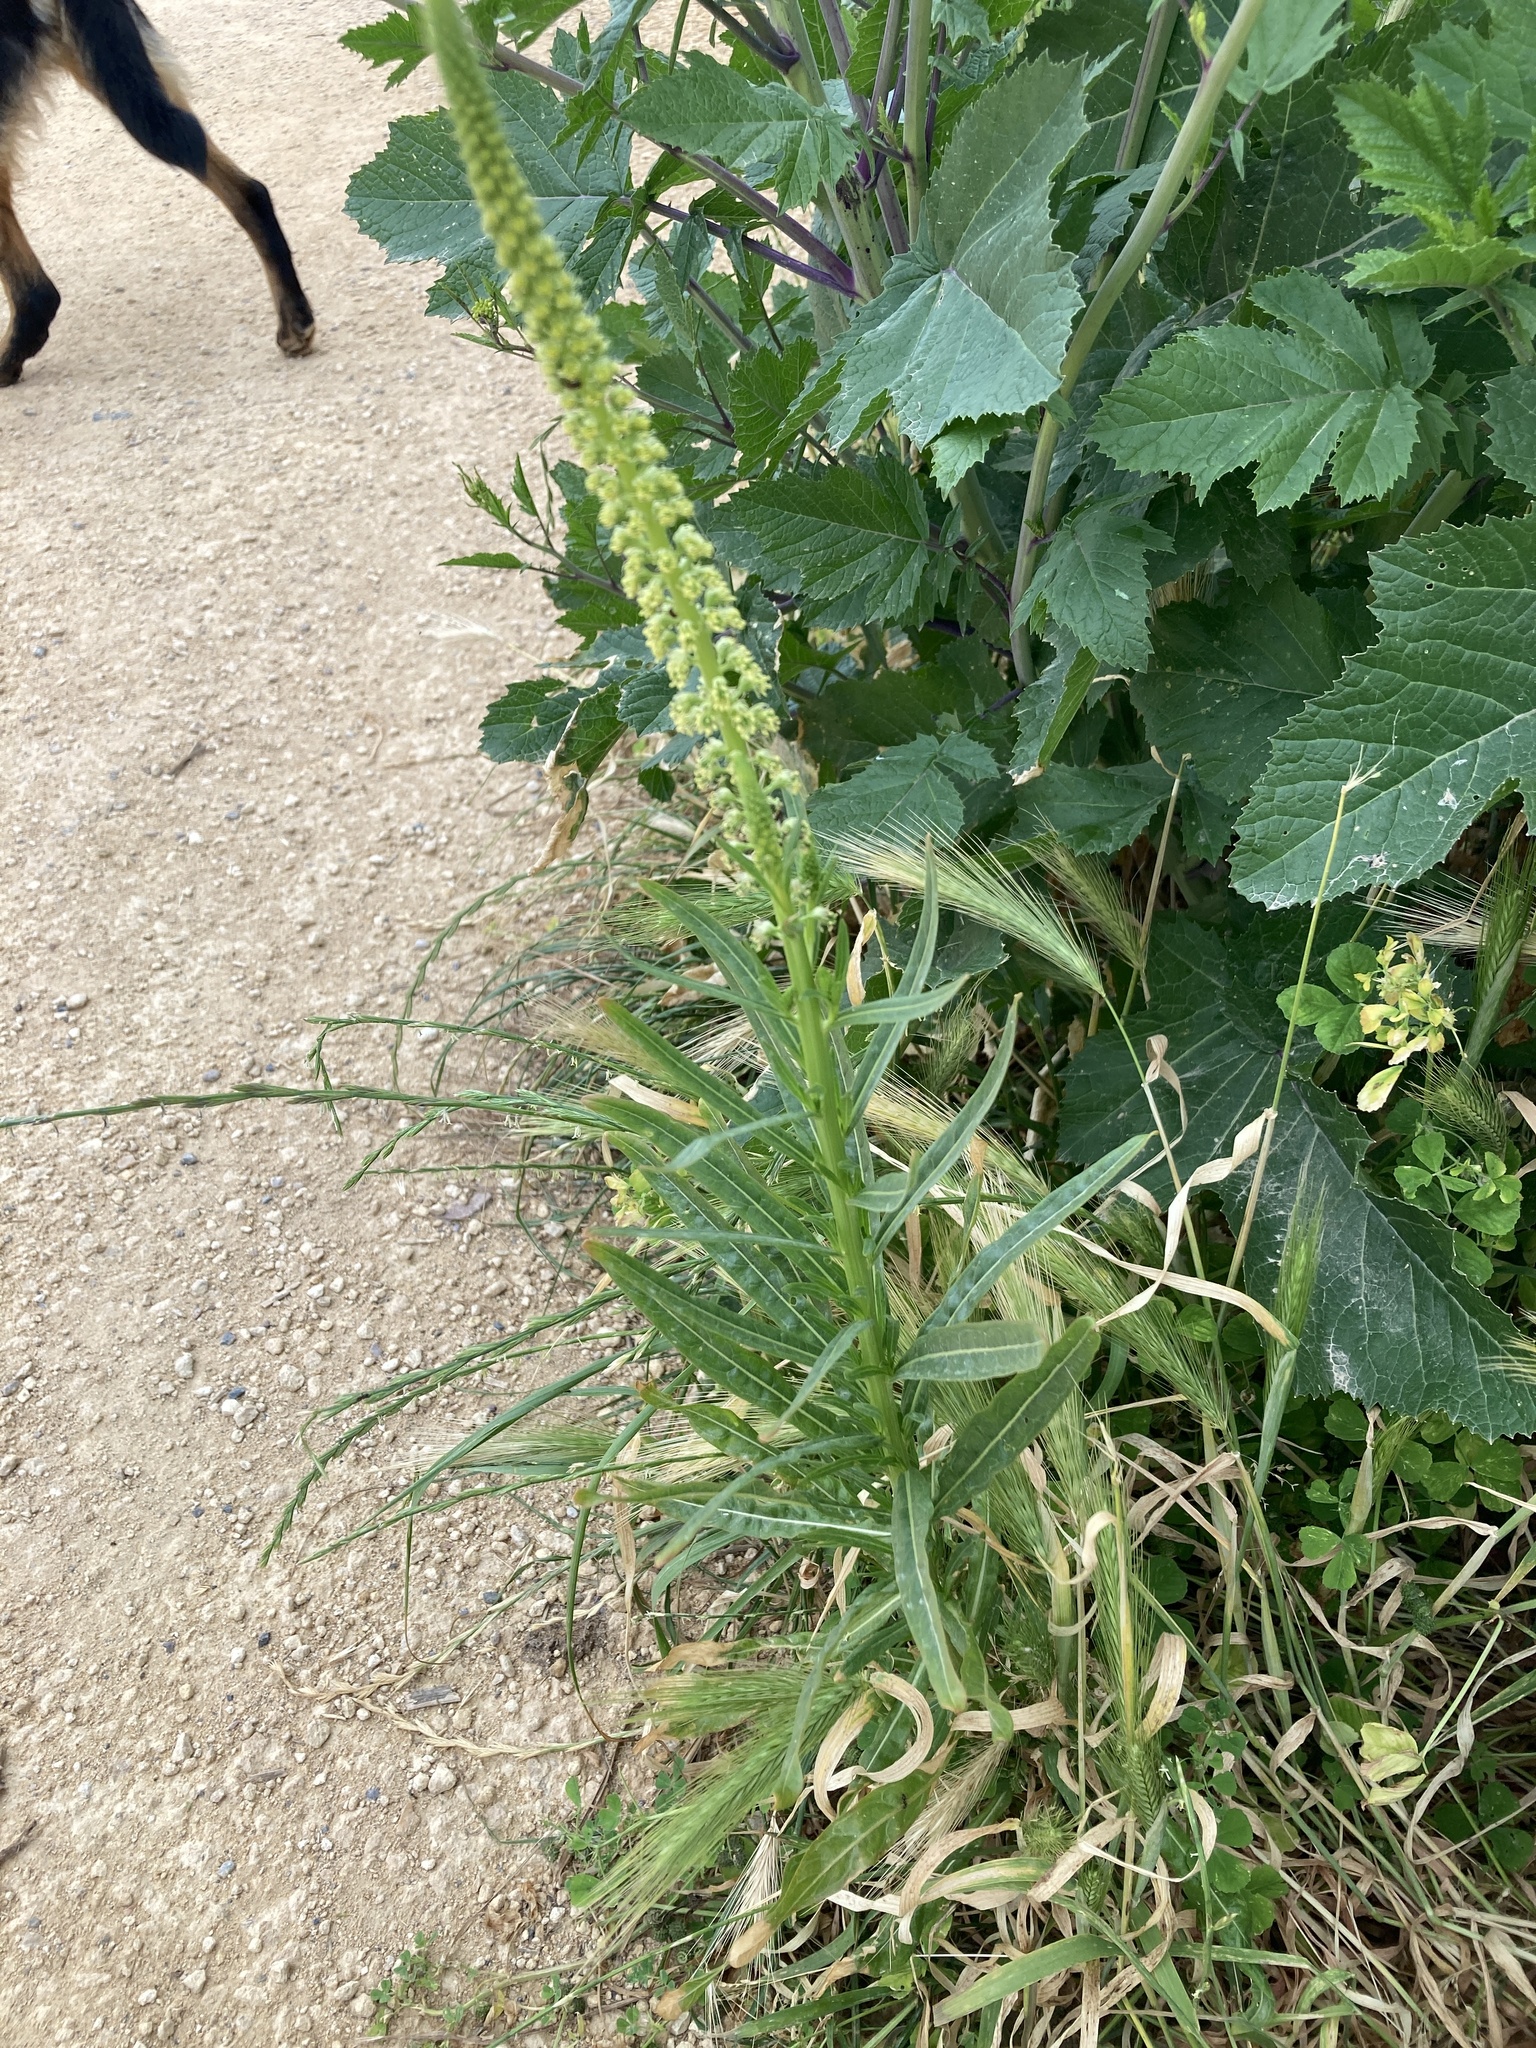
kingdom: Plantae
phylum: Tracheophyta
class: Magnoliopsida
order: Brassicales
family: Resedaceae
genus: Reseda
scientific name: Reseda luteola
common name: Weld
